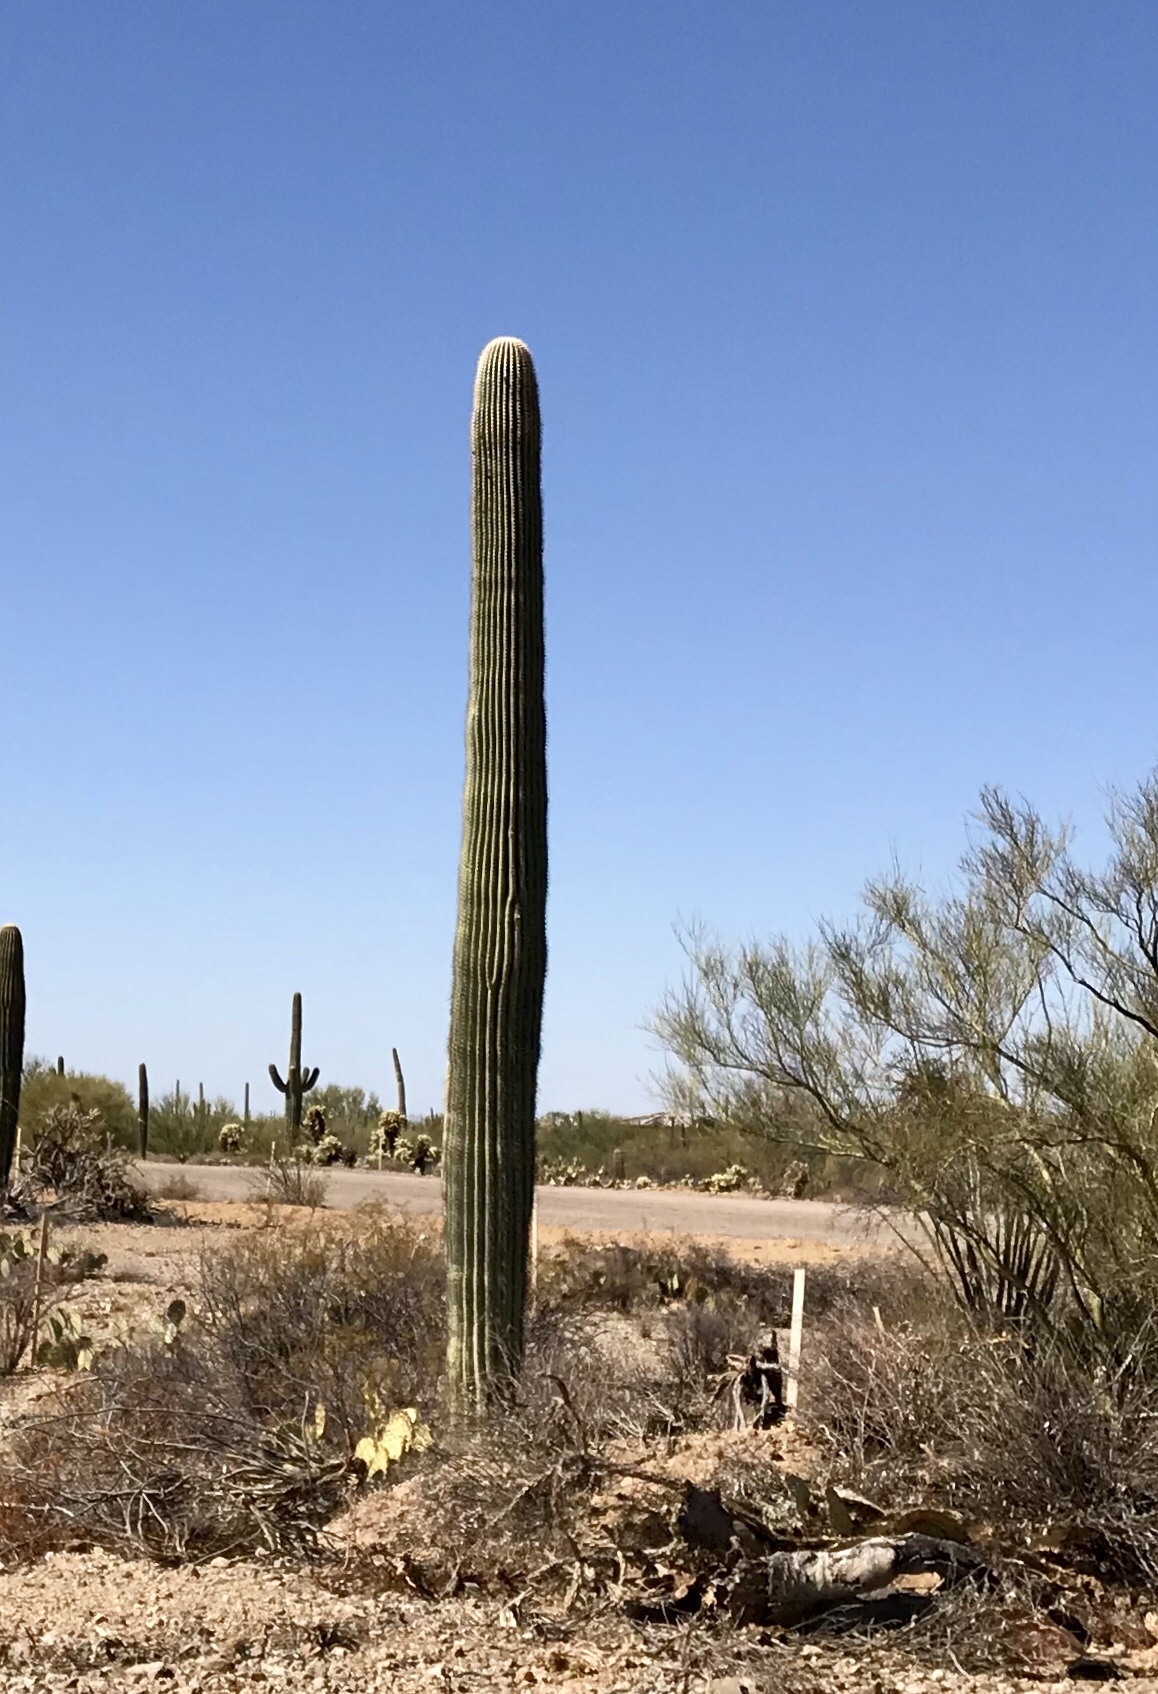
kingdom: Plantae
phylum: Tracheophyta
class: Magnoliopsida
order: Caryophyllales
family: Cactaceae
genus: Carnegiea
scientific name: Carnegiea gigantea
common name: Saguaro
